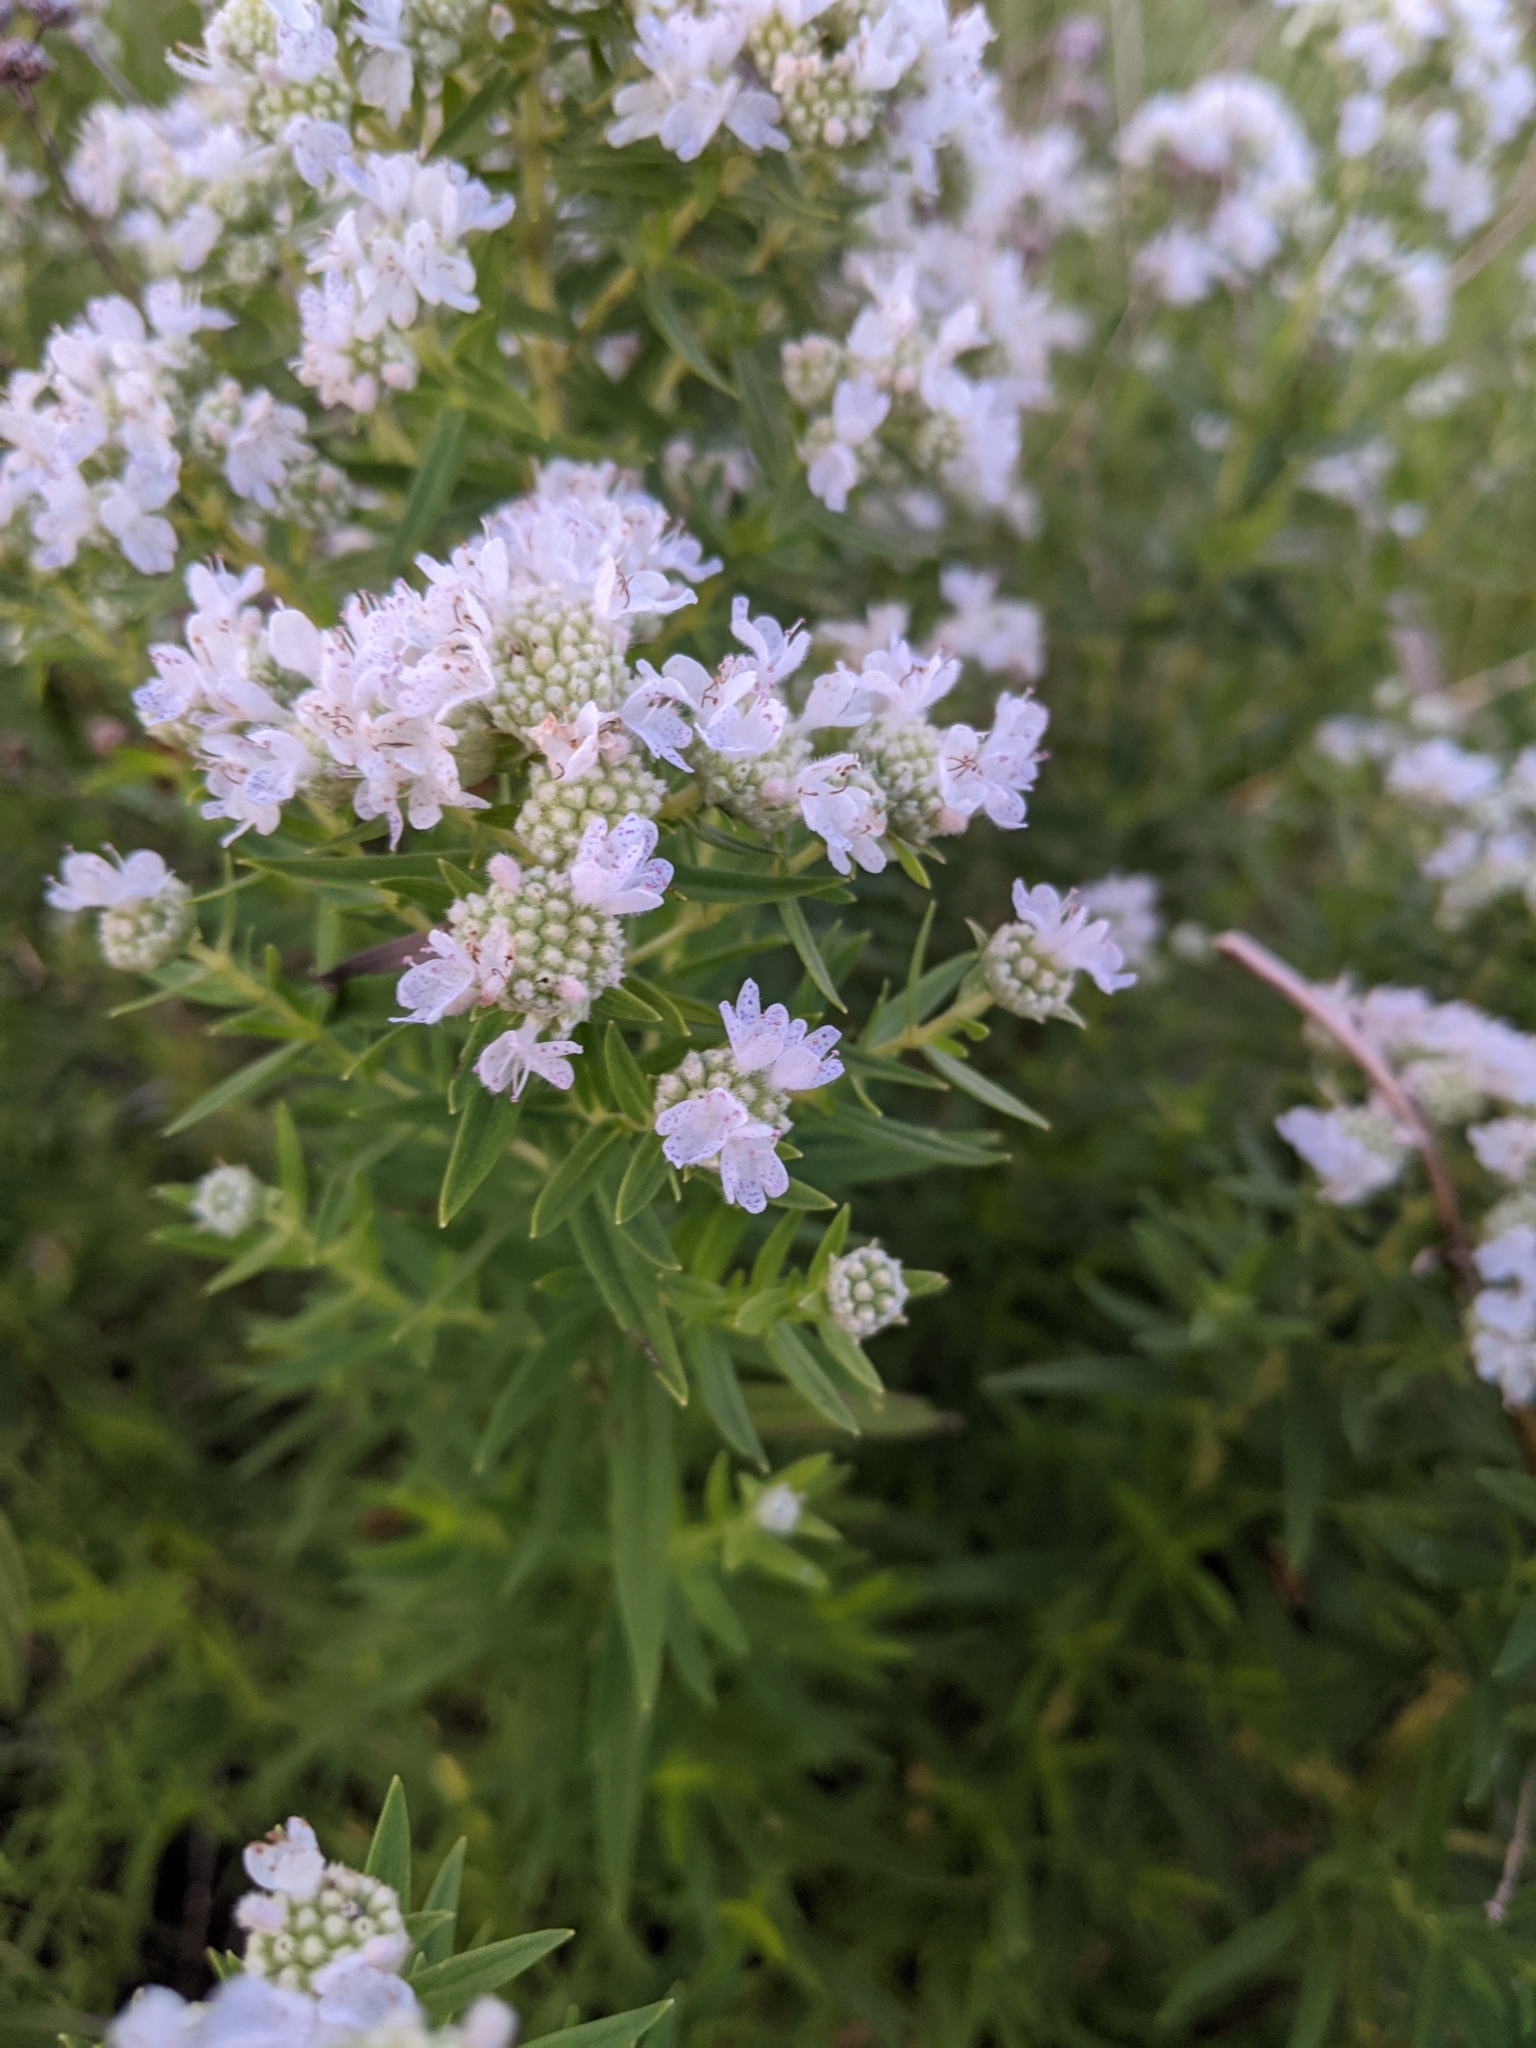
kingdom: Plantae
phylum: Tracheophyta
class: Magnoliopsida
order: Lamiales
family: Lamiaceae
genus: Pycnanthemum
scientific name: Pycnanthemum virginianum
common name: Virginia mountain-mint
